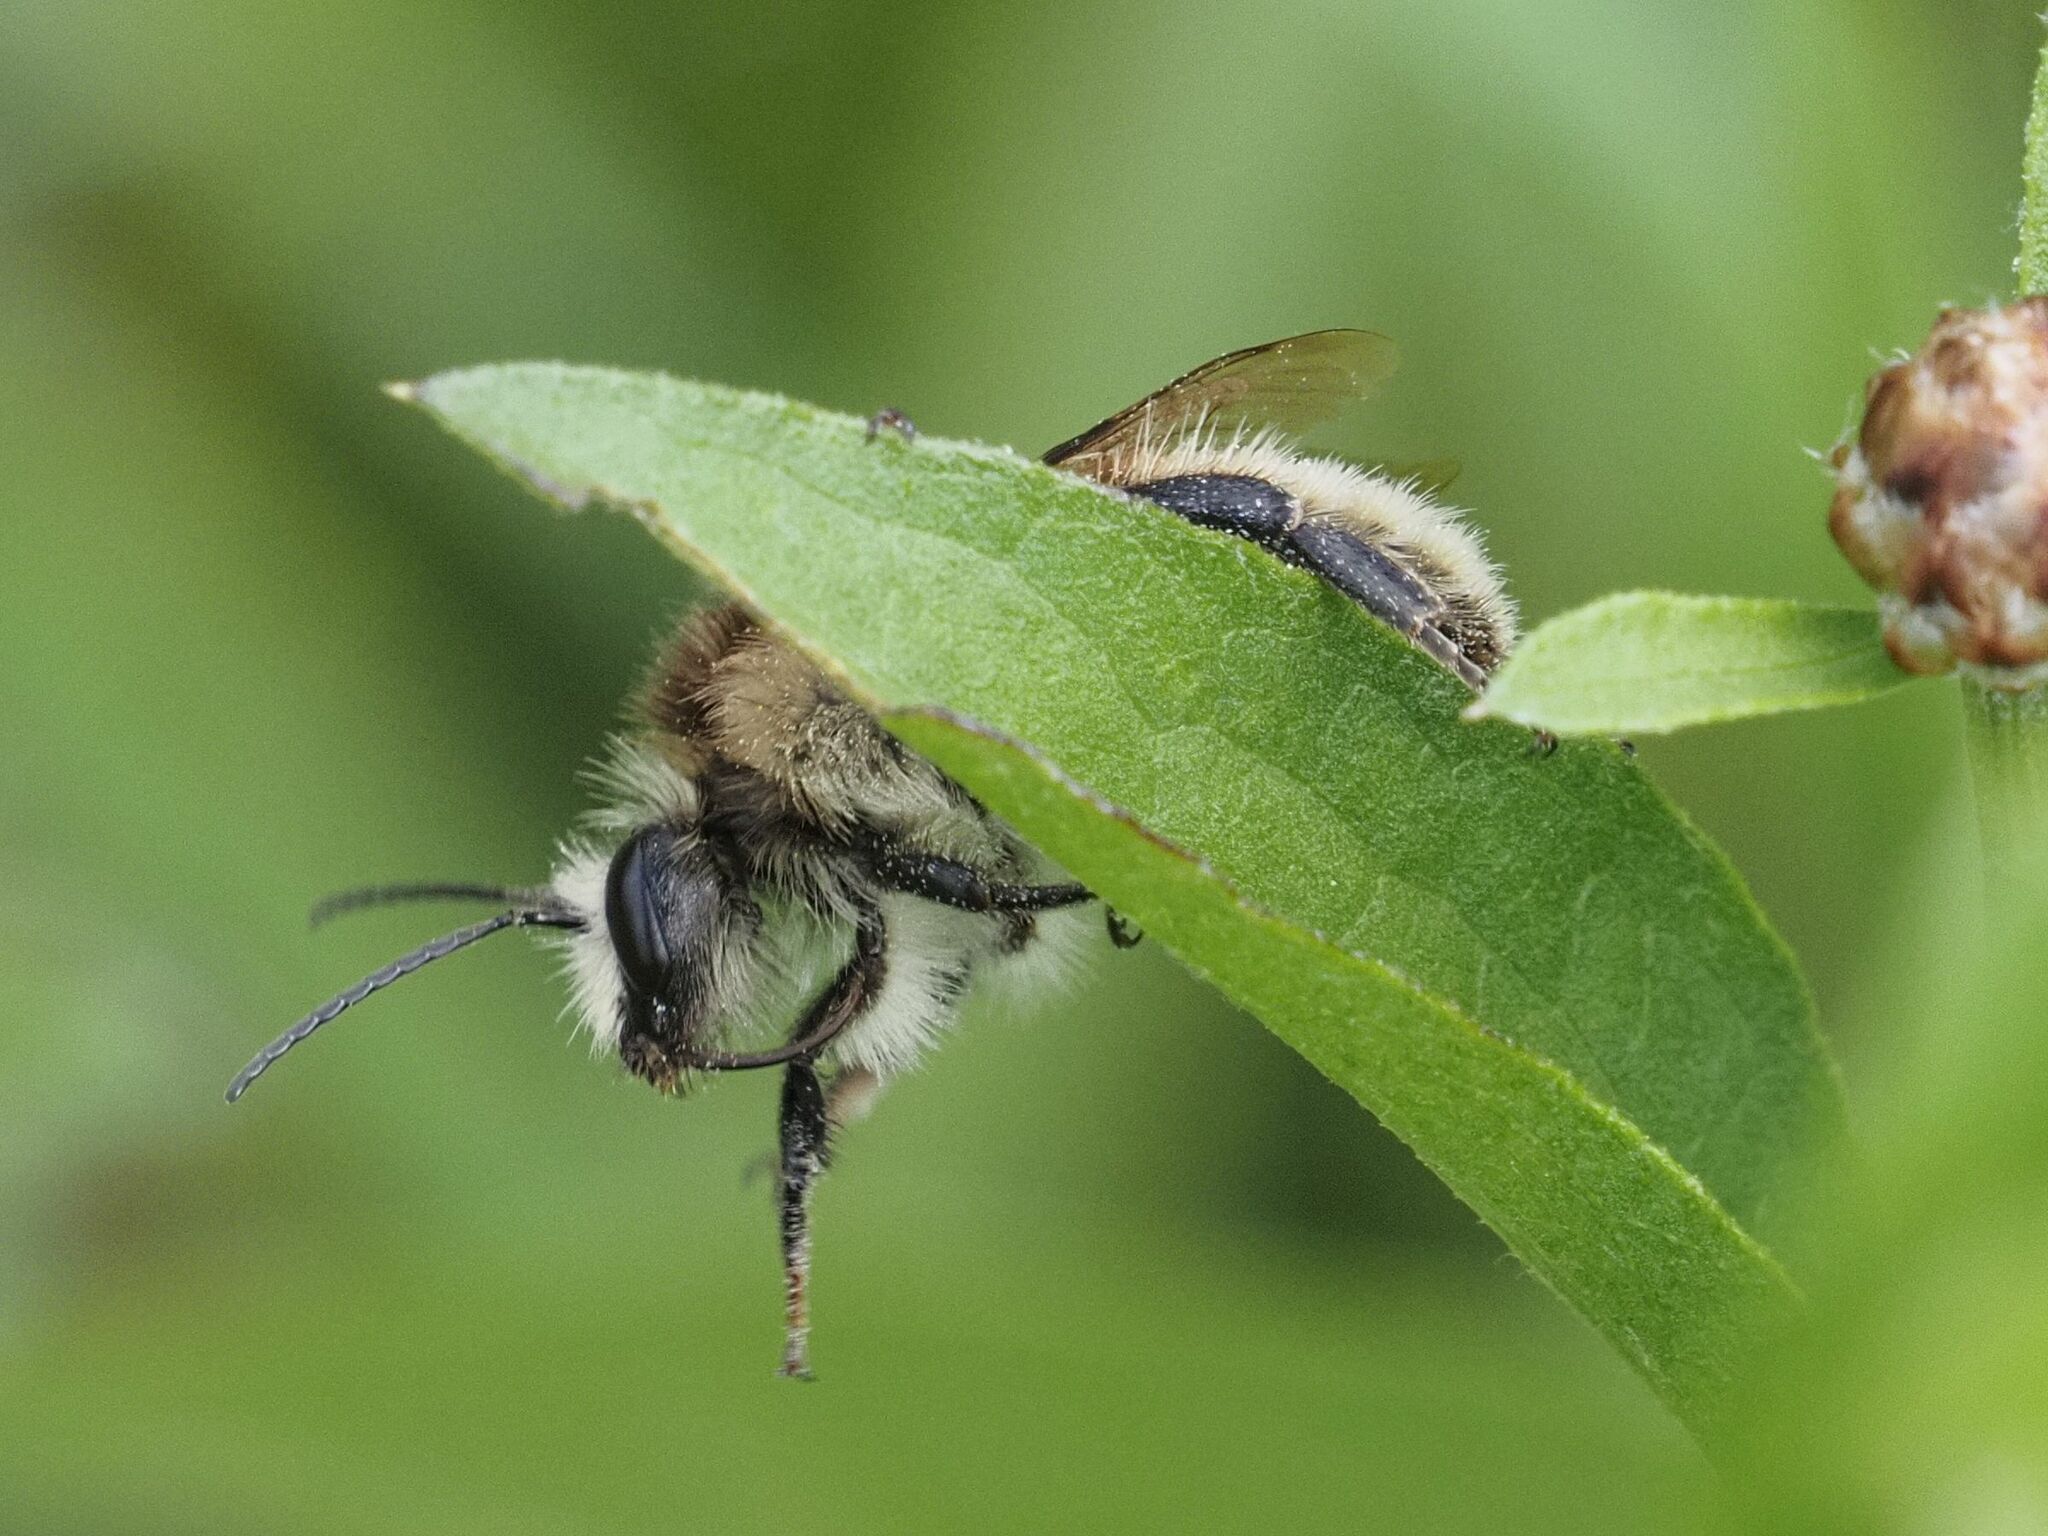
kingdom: Animalia
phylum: Arthropoda
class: Insecta
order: Hymenoptera
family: Apidae
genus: Bombus
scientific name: Bombus humilis
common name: Brown-banded carder-bee
